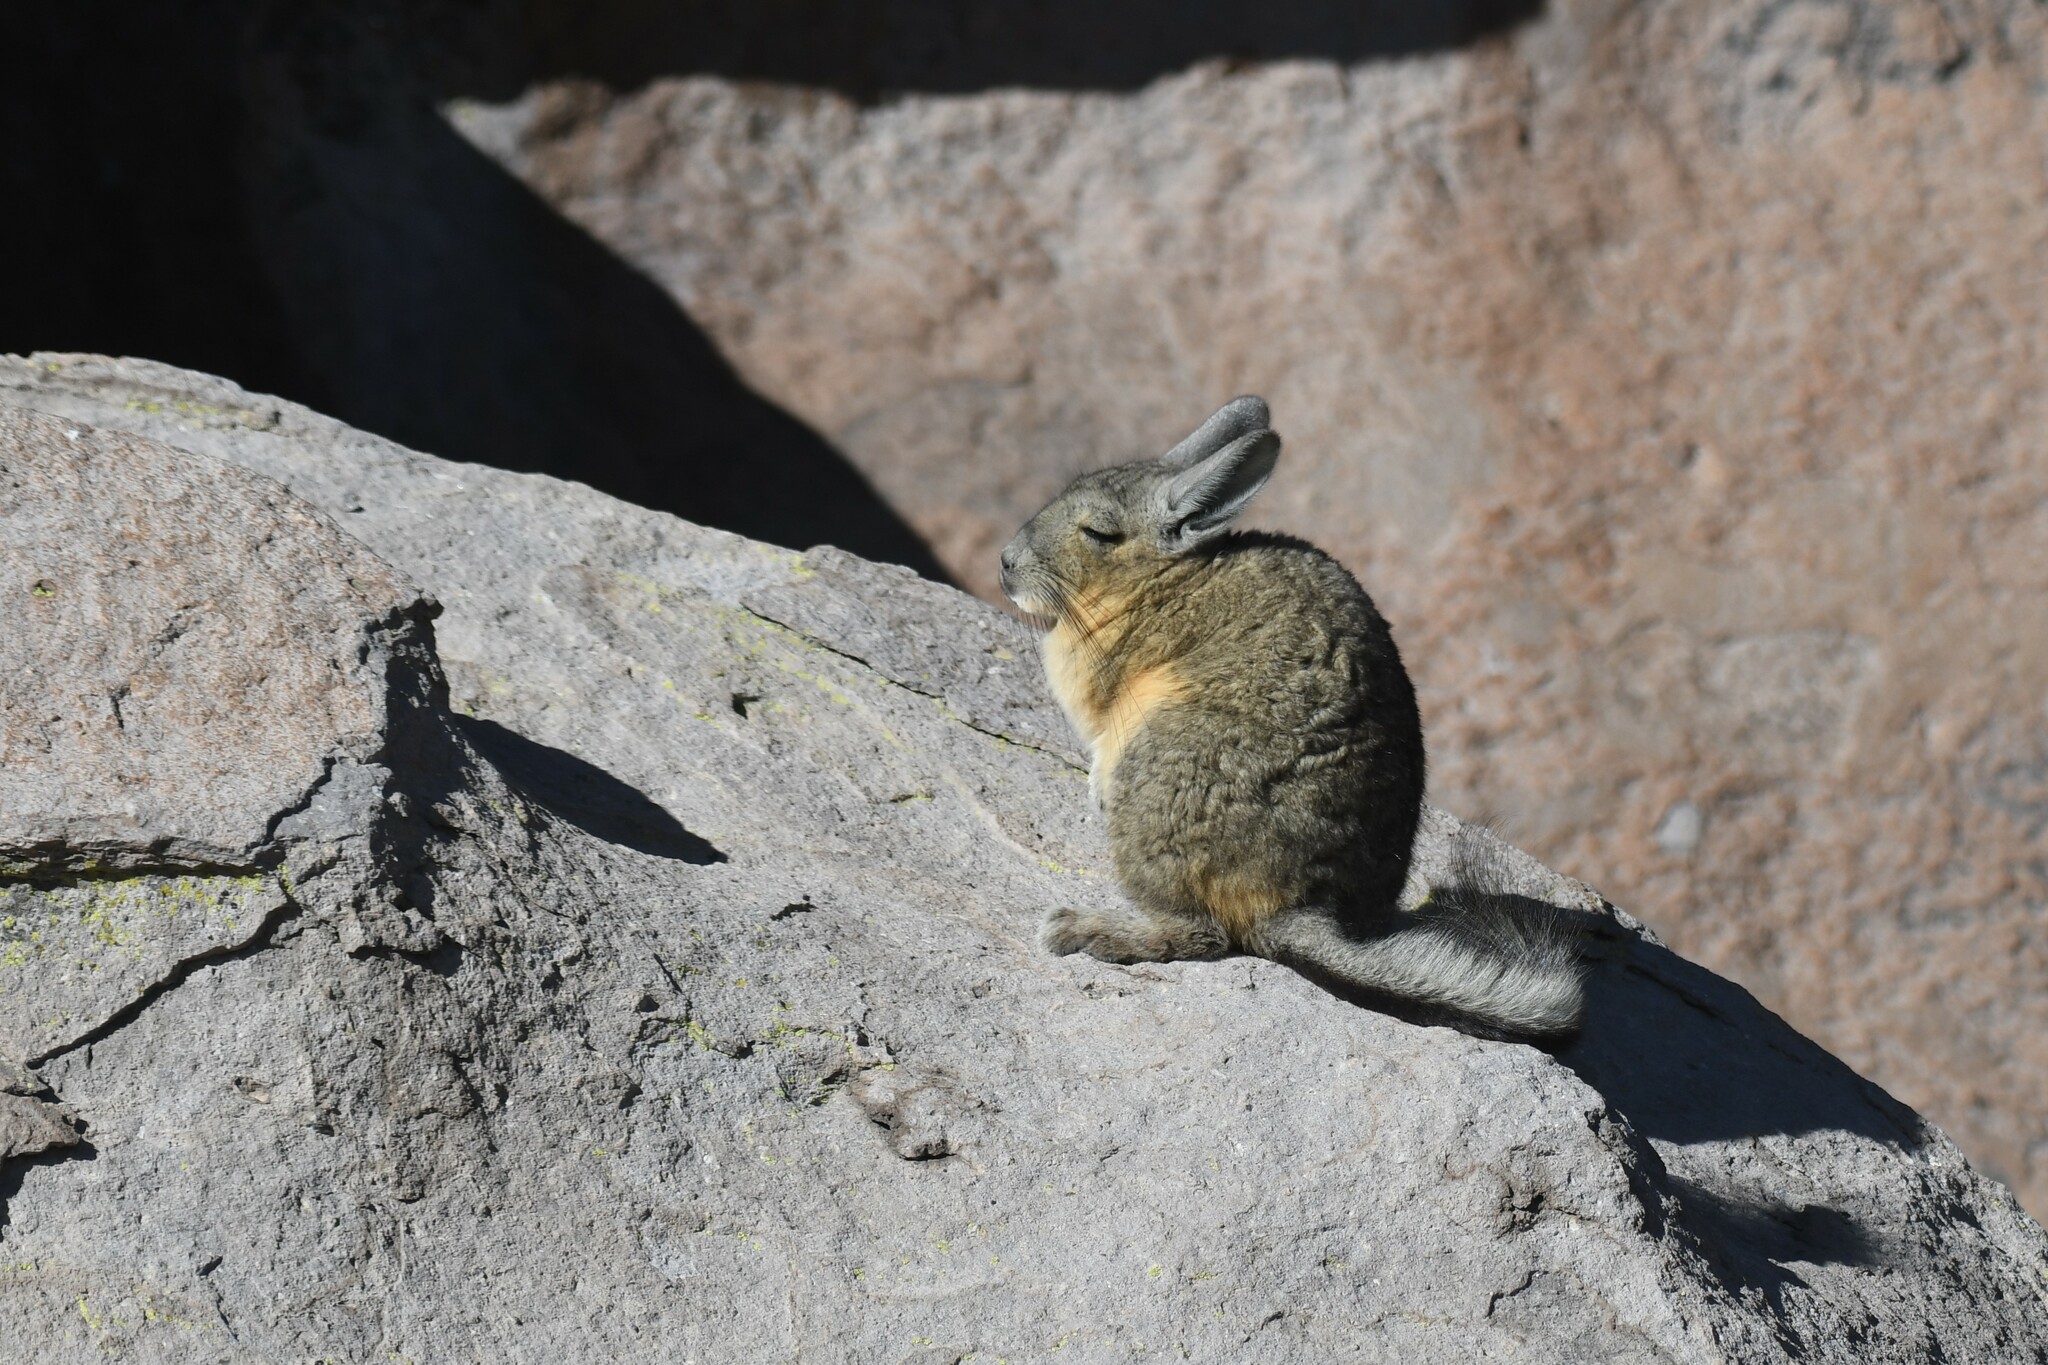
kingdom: Animalia
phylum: Chordata
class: Mammalia
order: Rodentia
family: Chinchillidae
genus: Lagidium
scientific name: Lagidium viscacia
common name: Southern viscacha
